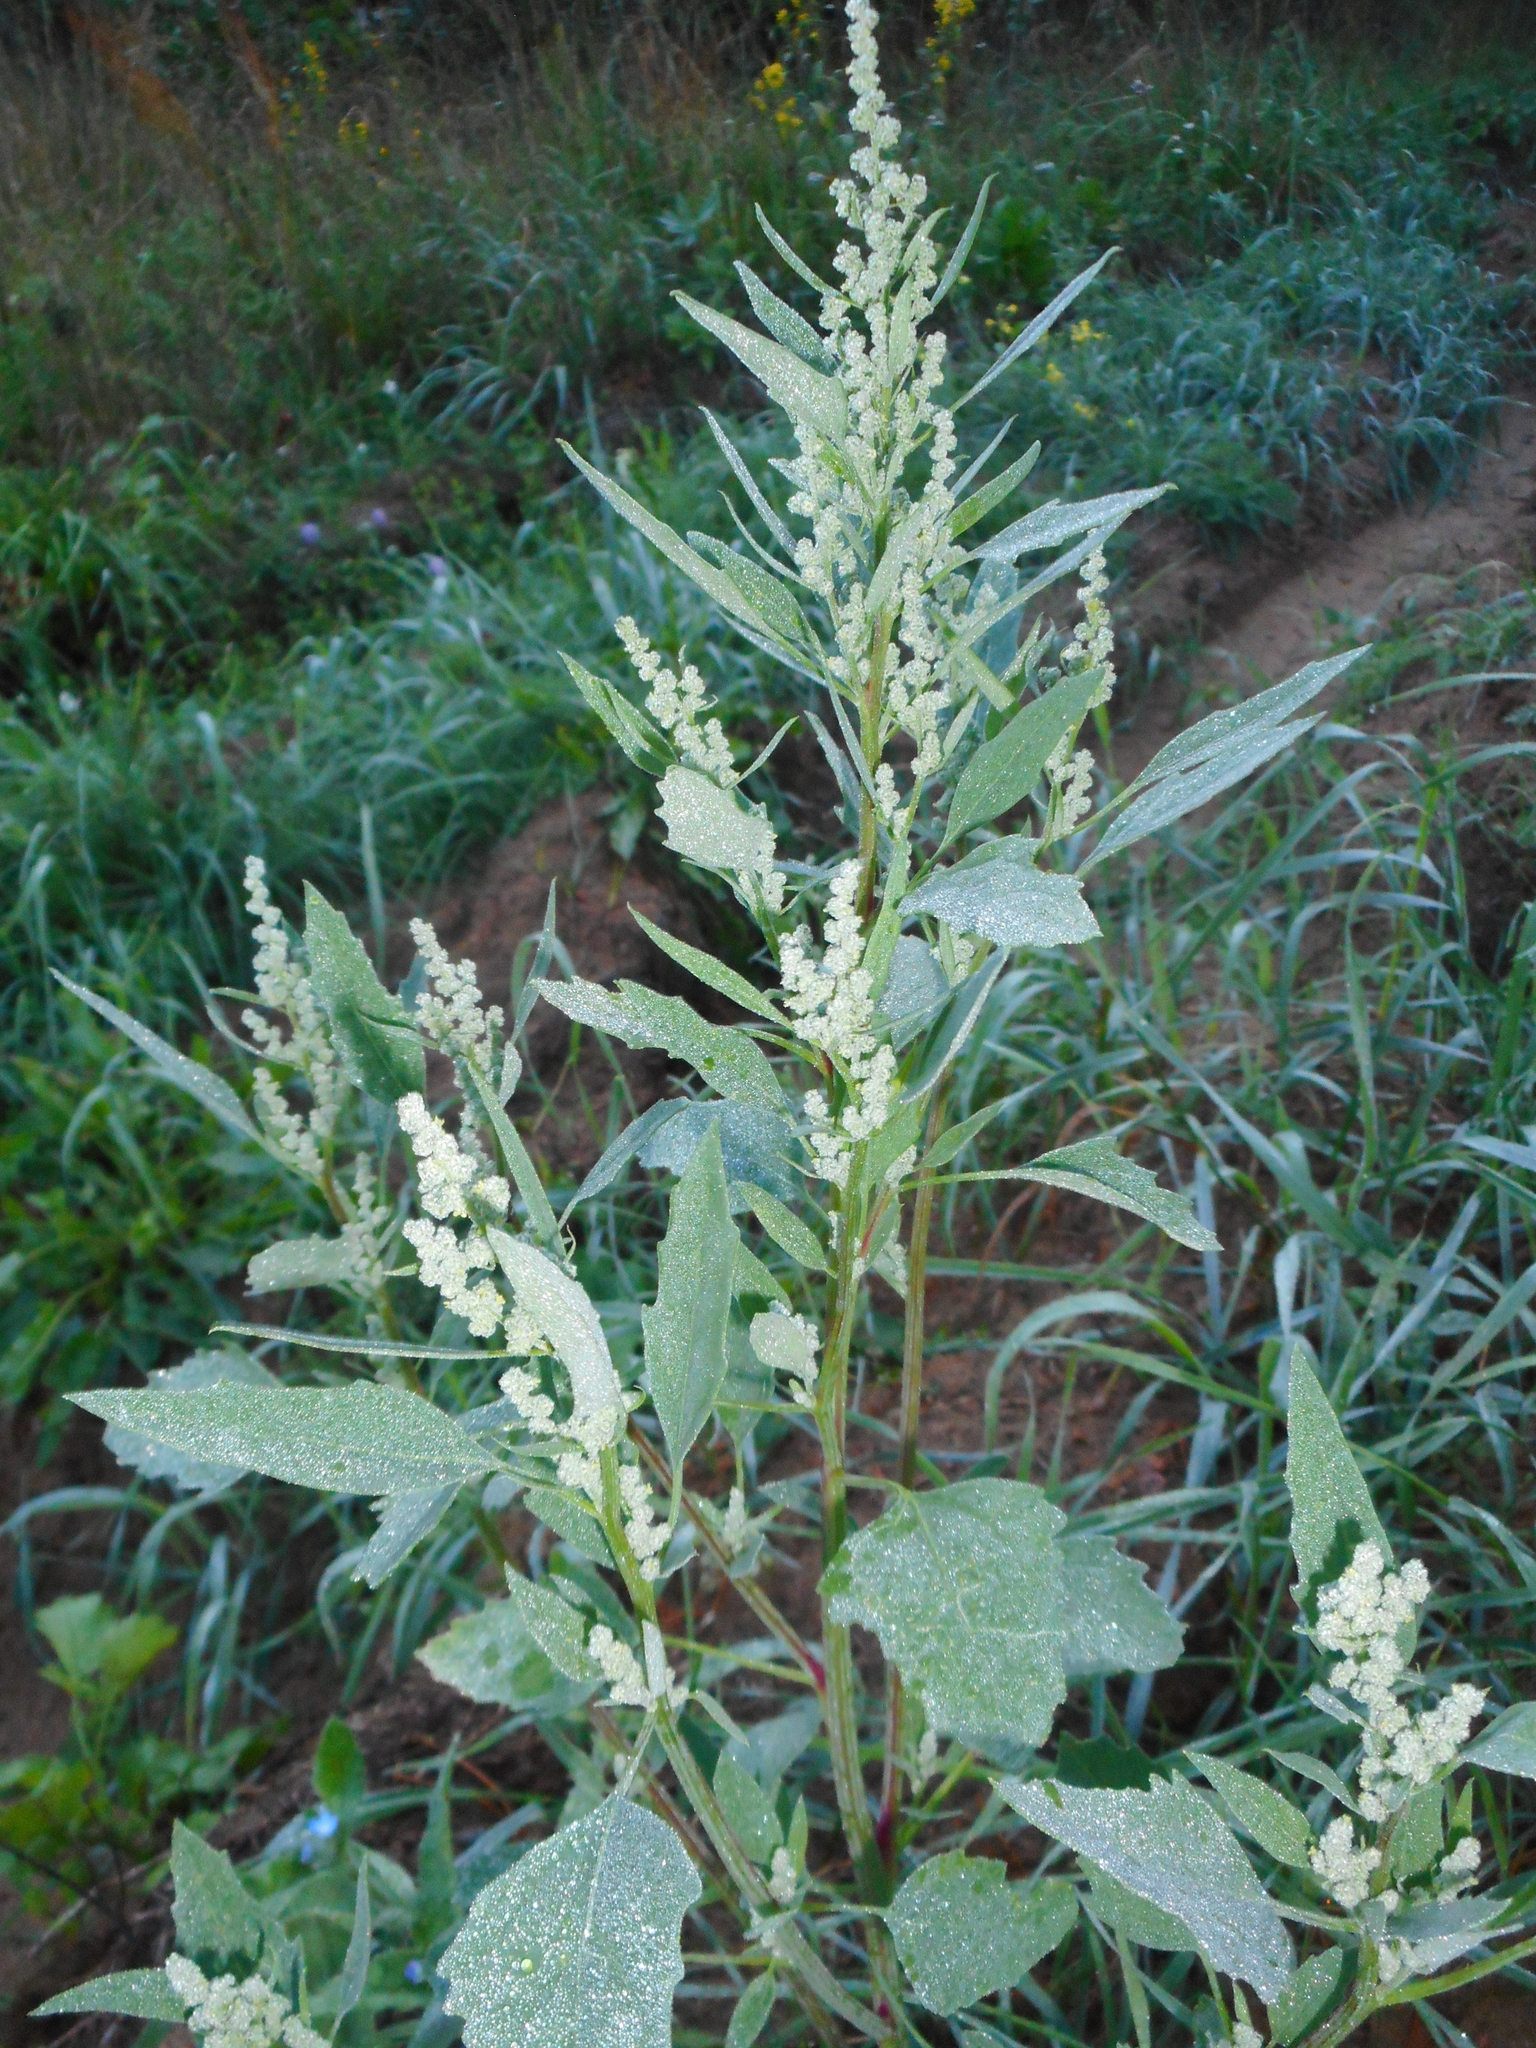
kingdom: Plantae
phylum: Tracheophyta
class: Magnoliopsida
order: Caryophyllales
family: Amaranthaceae
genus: Chenopodium
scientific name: Chenopodium album
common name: Fat-hen
